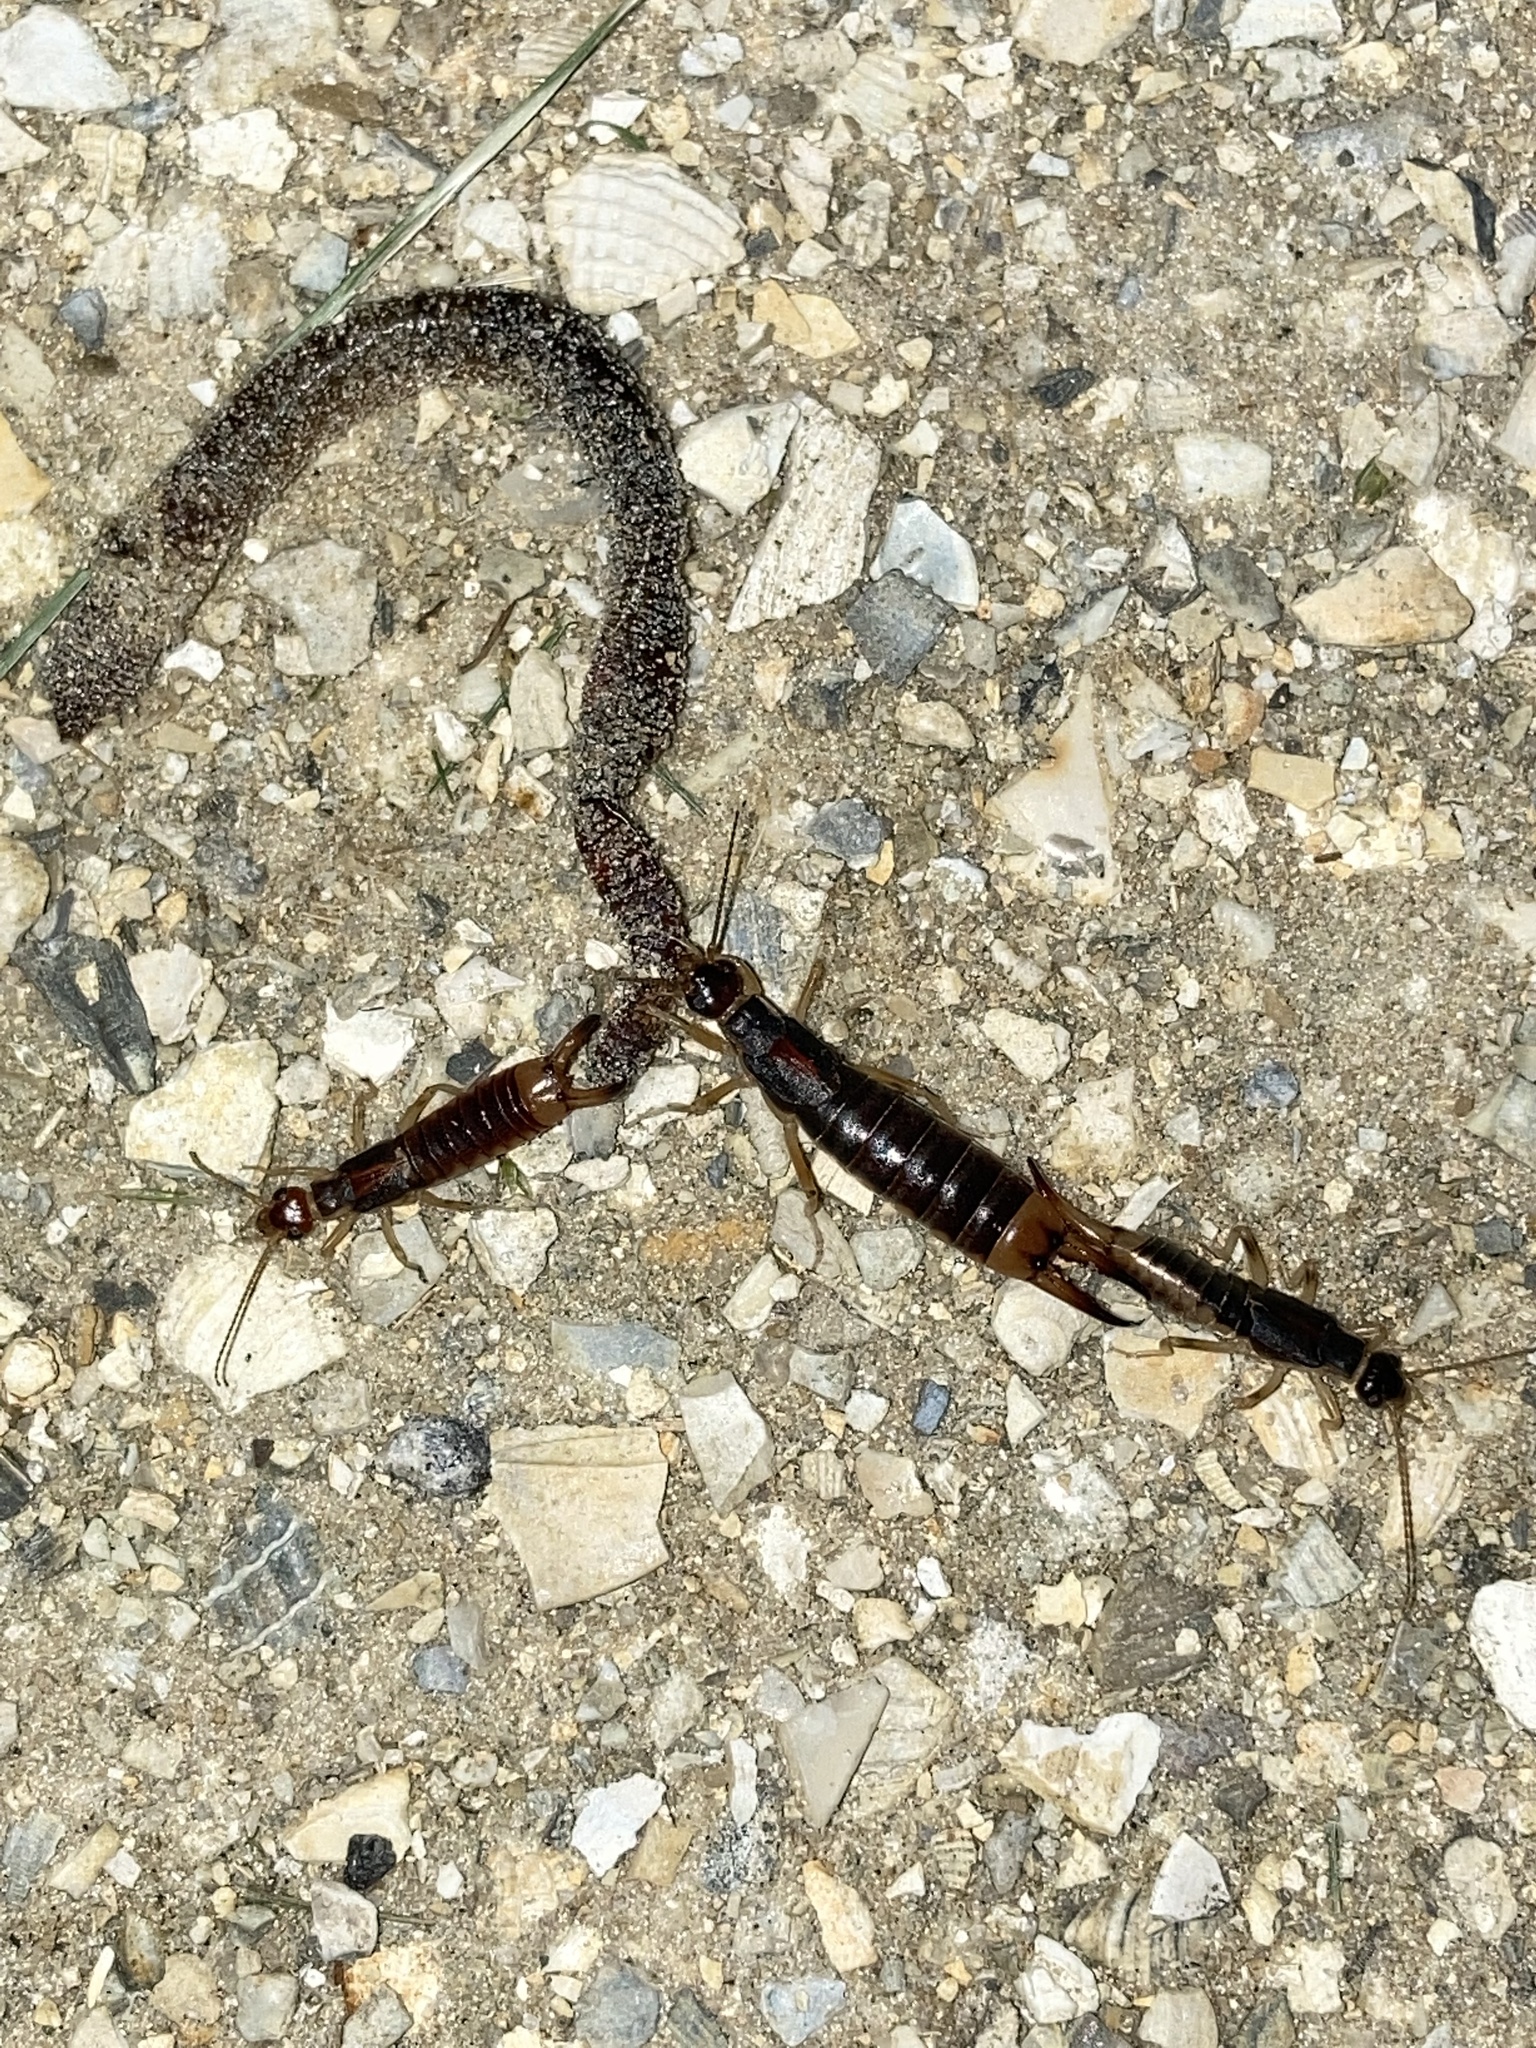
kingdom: Animalia
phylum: Arthropoda
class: Insecta
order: Dermaptera
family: Labiduridae
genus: Labidura
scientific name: Labidura riparia
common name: Striped earwig
